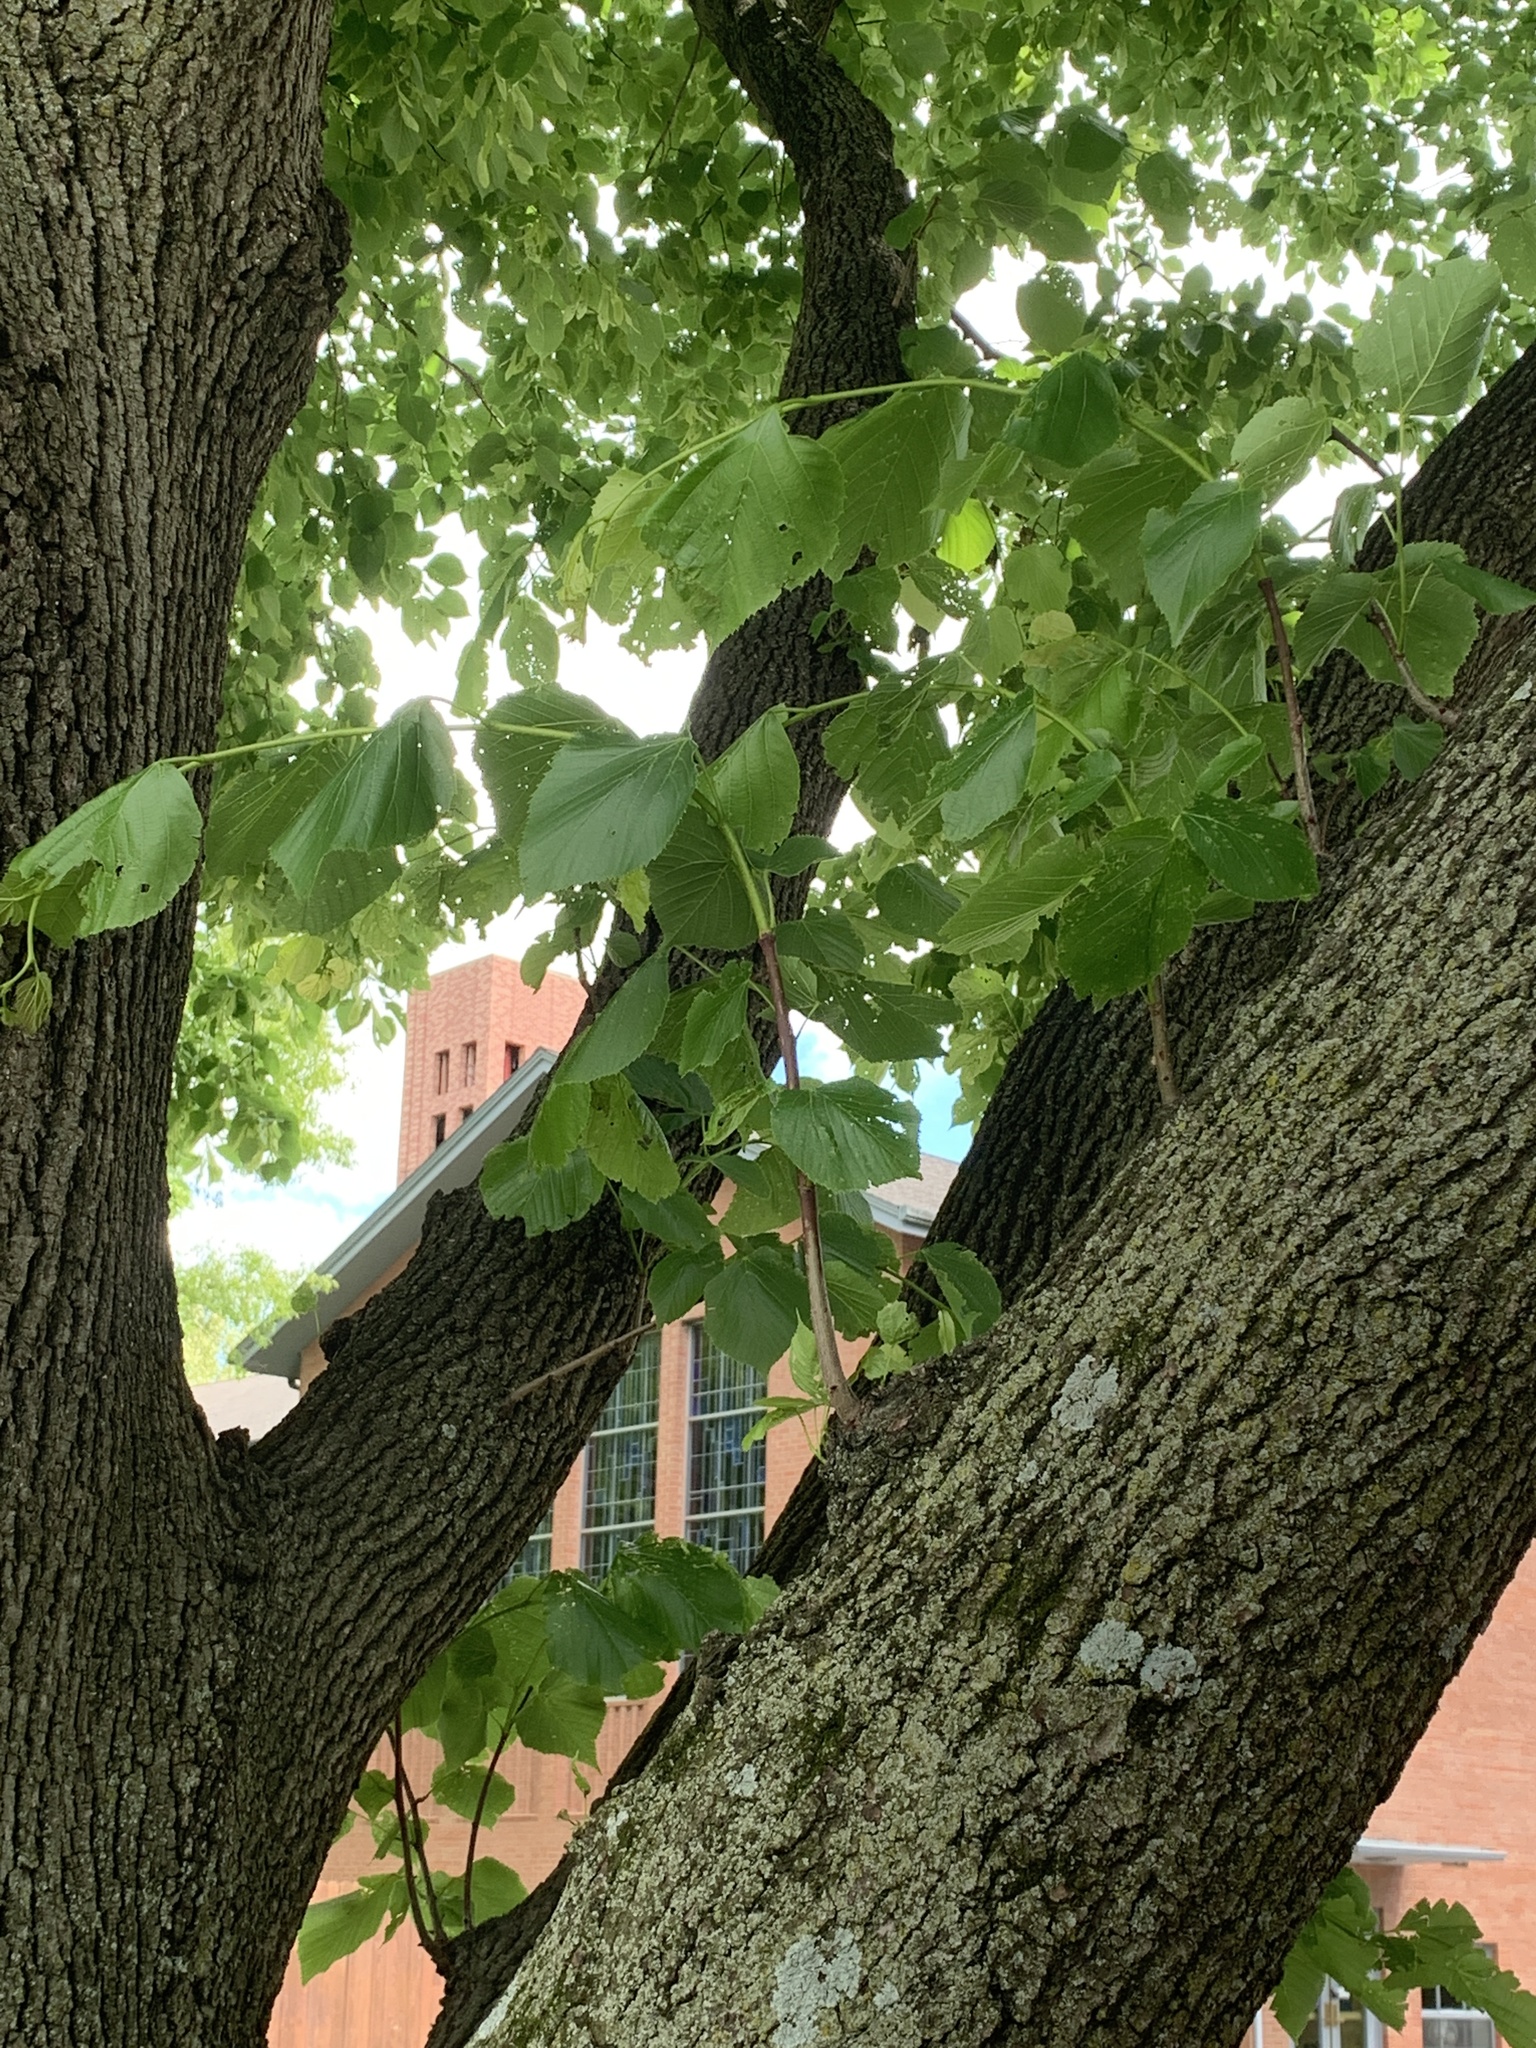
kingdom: Plantae
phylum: Tracheophyta
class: Magnoliopsida
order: Malvales
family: Malvaceae
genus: Tilia
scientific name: Tilia americana
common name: Basswood
